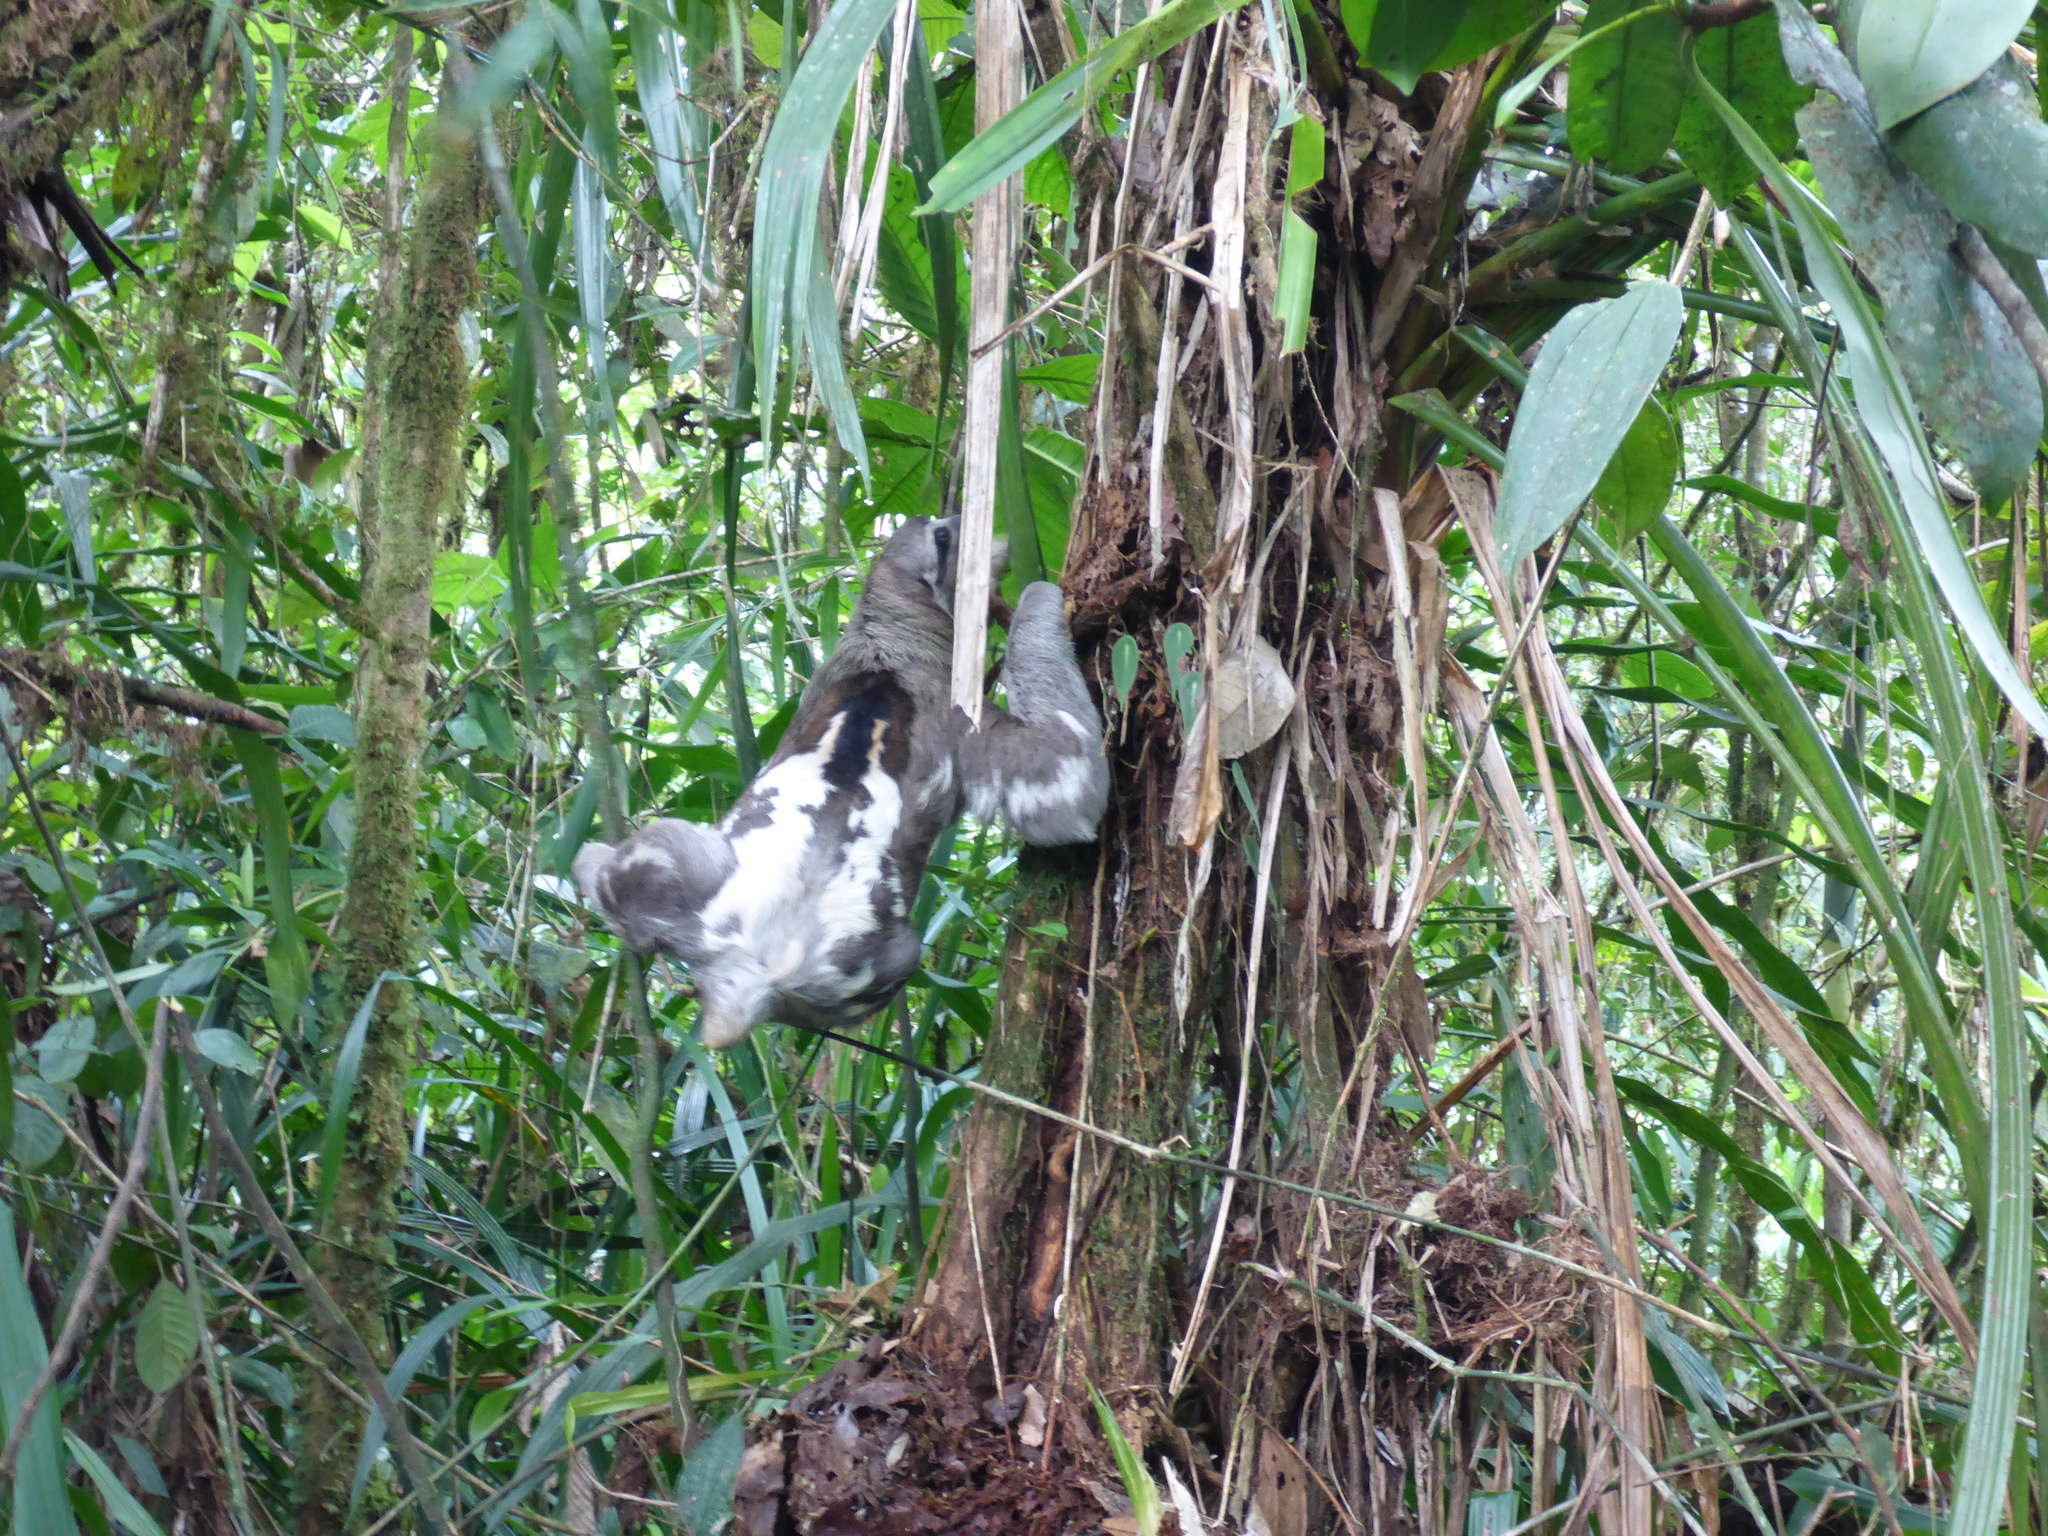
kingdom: Animalia
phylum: Chordata
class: Mammalia
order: Pilosa
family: Bradypodidae
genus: Bradypus
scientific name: Bradypus variegatus
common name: Brown-throated three-toed sloth
